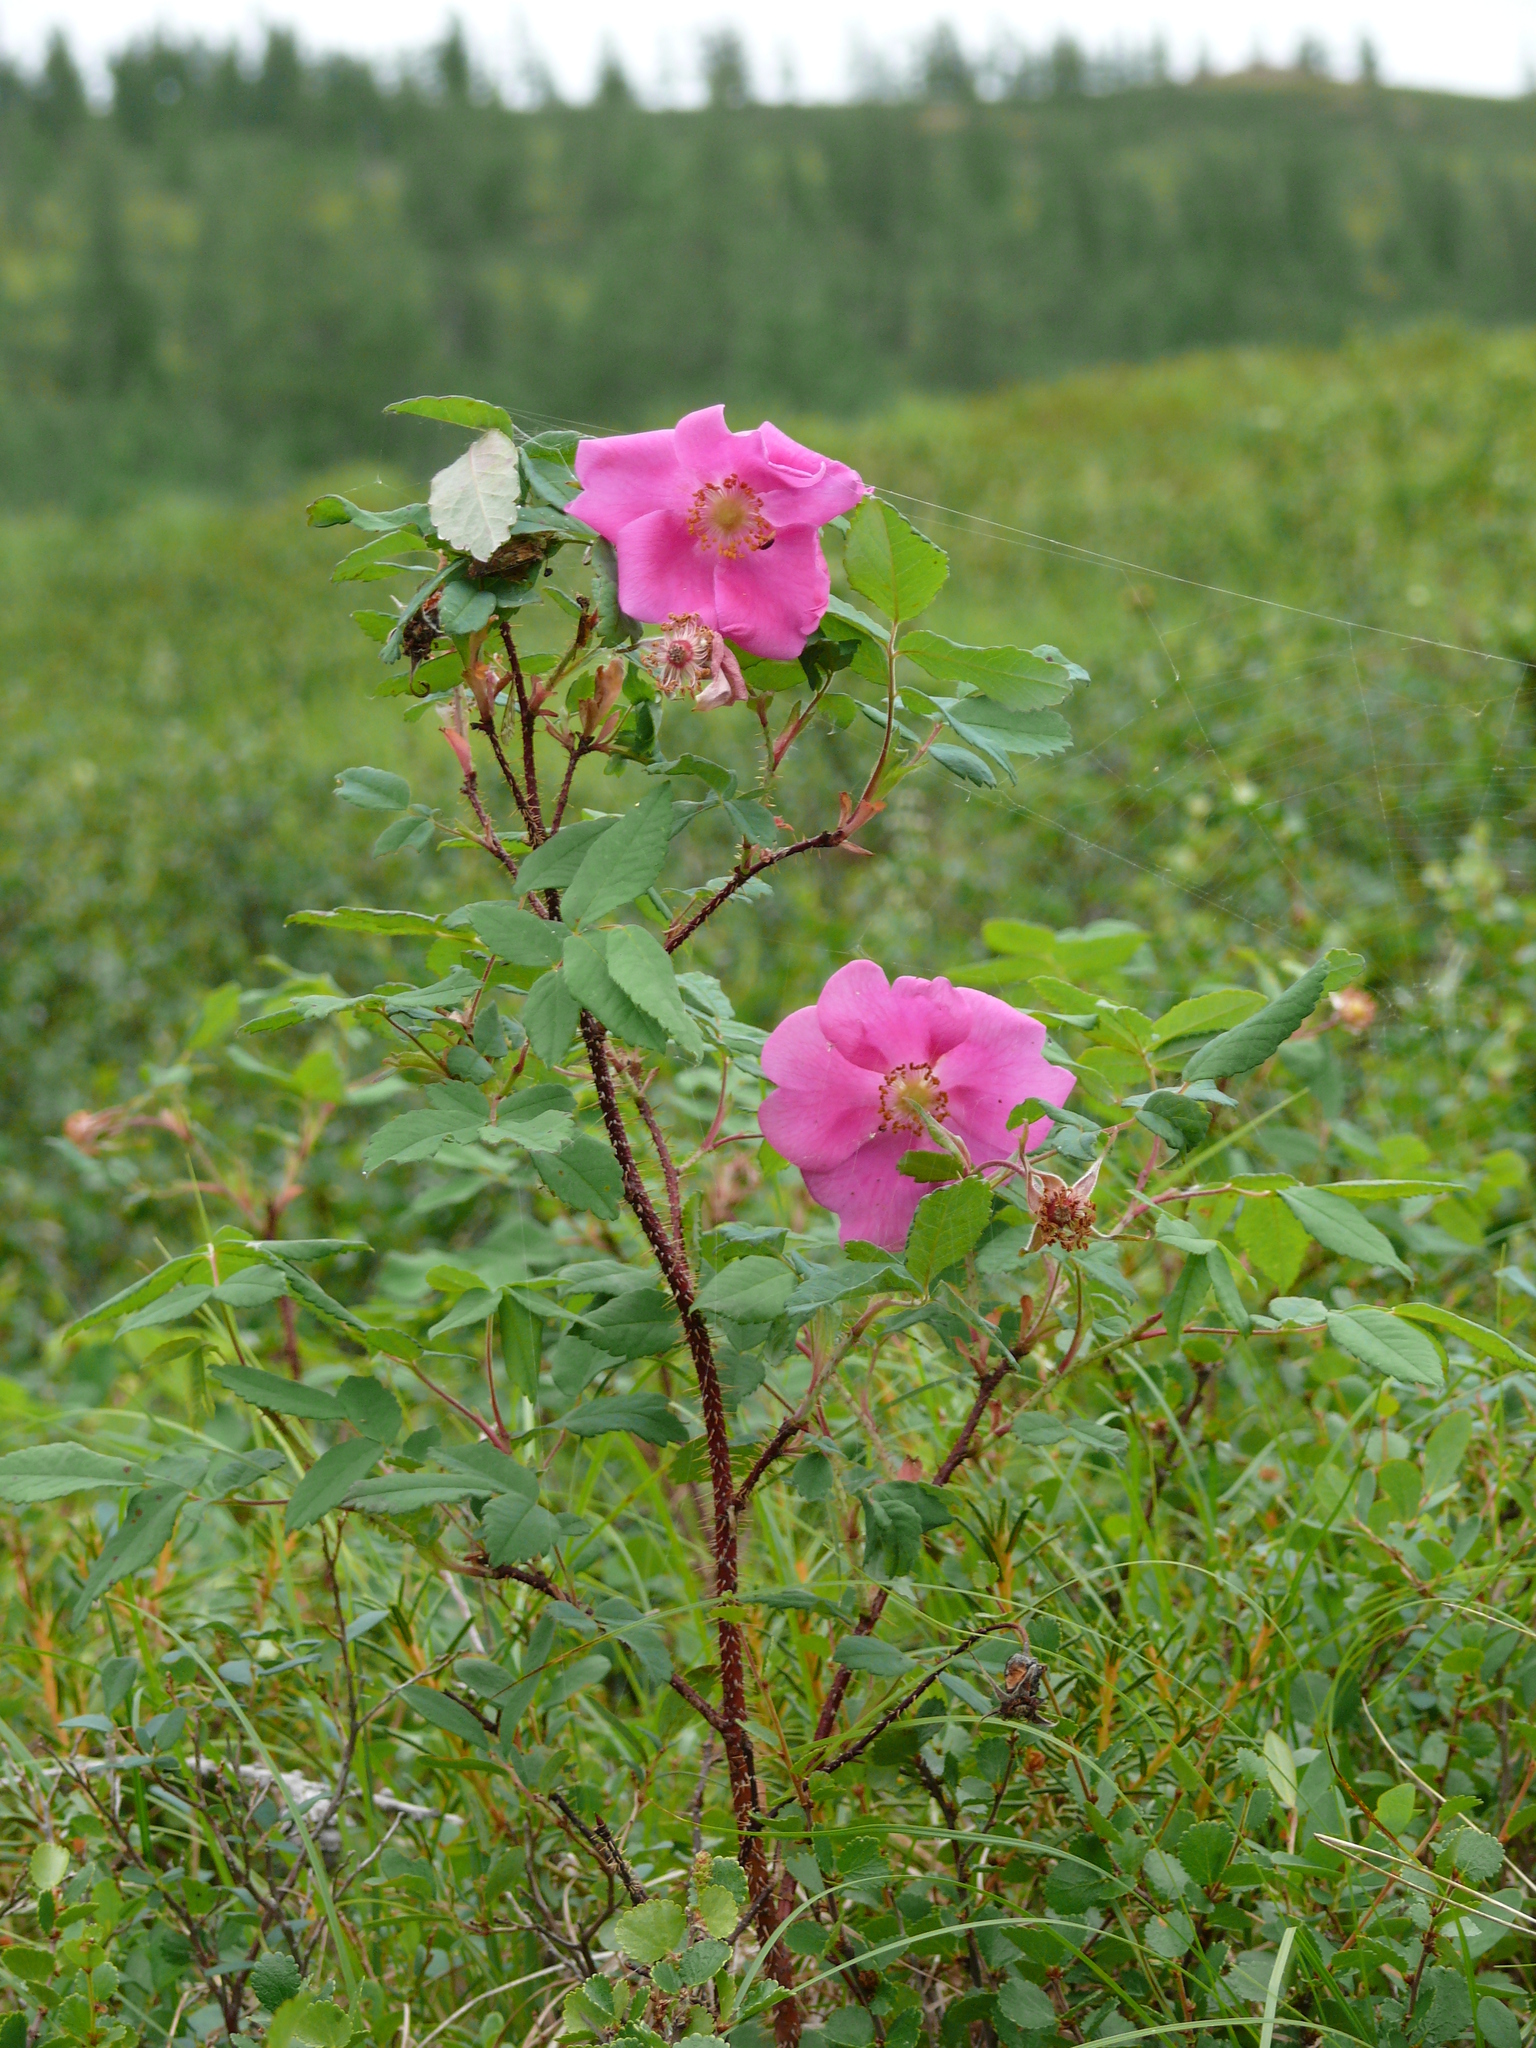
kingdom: Plantae
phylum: Tracheophyta
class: Magnoliopsida
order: Rosales
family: Rosaceae
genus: Rosa
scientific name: Rosa acicularis
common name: Prickly rose
